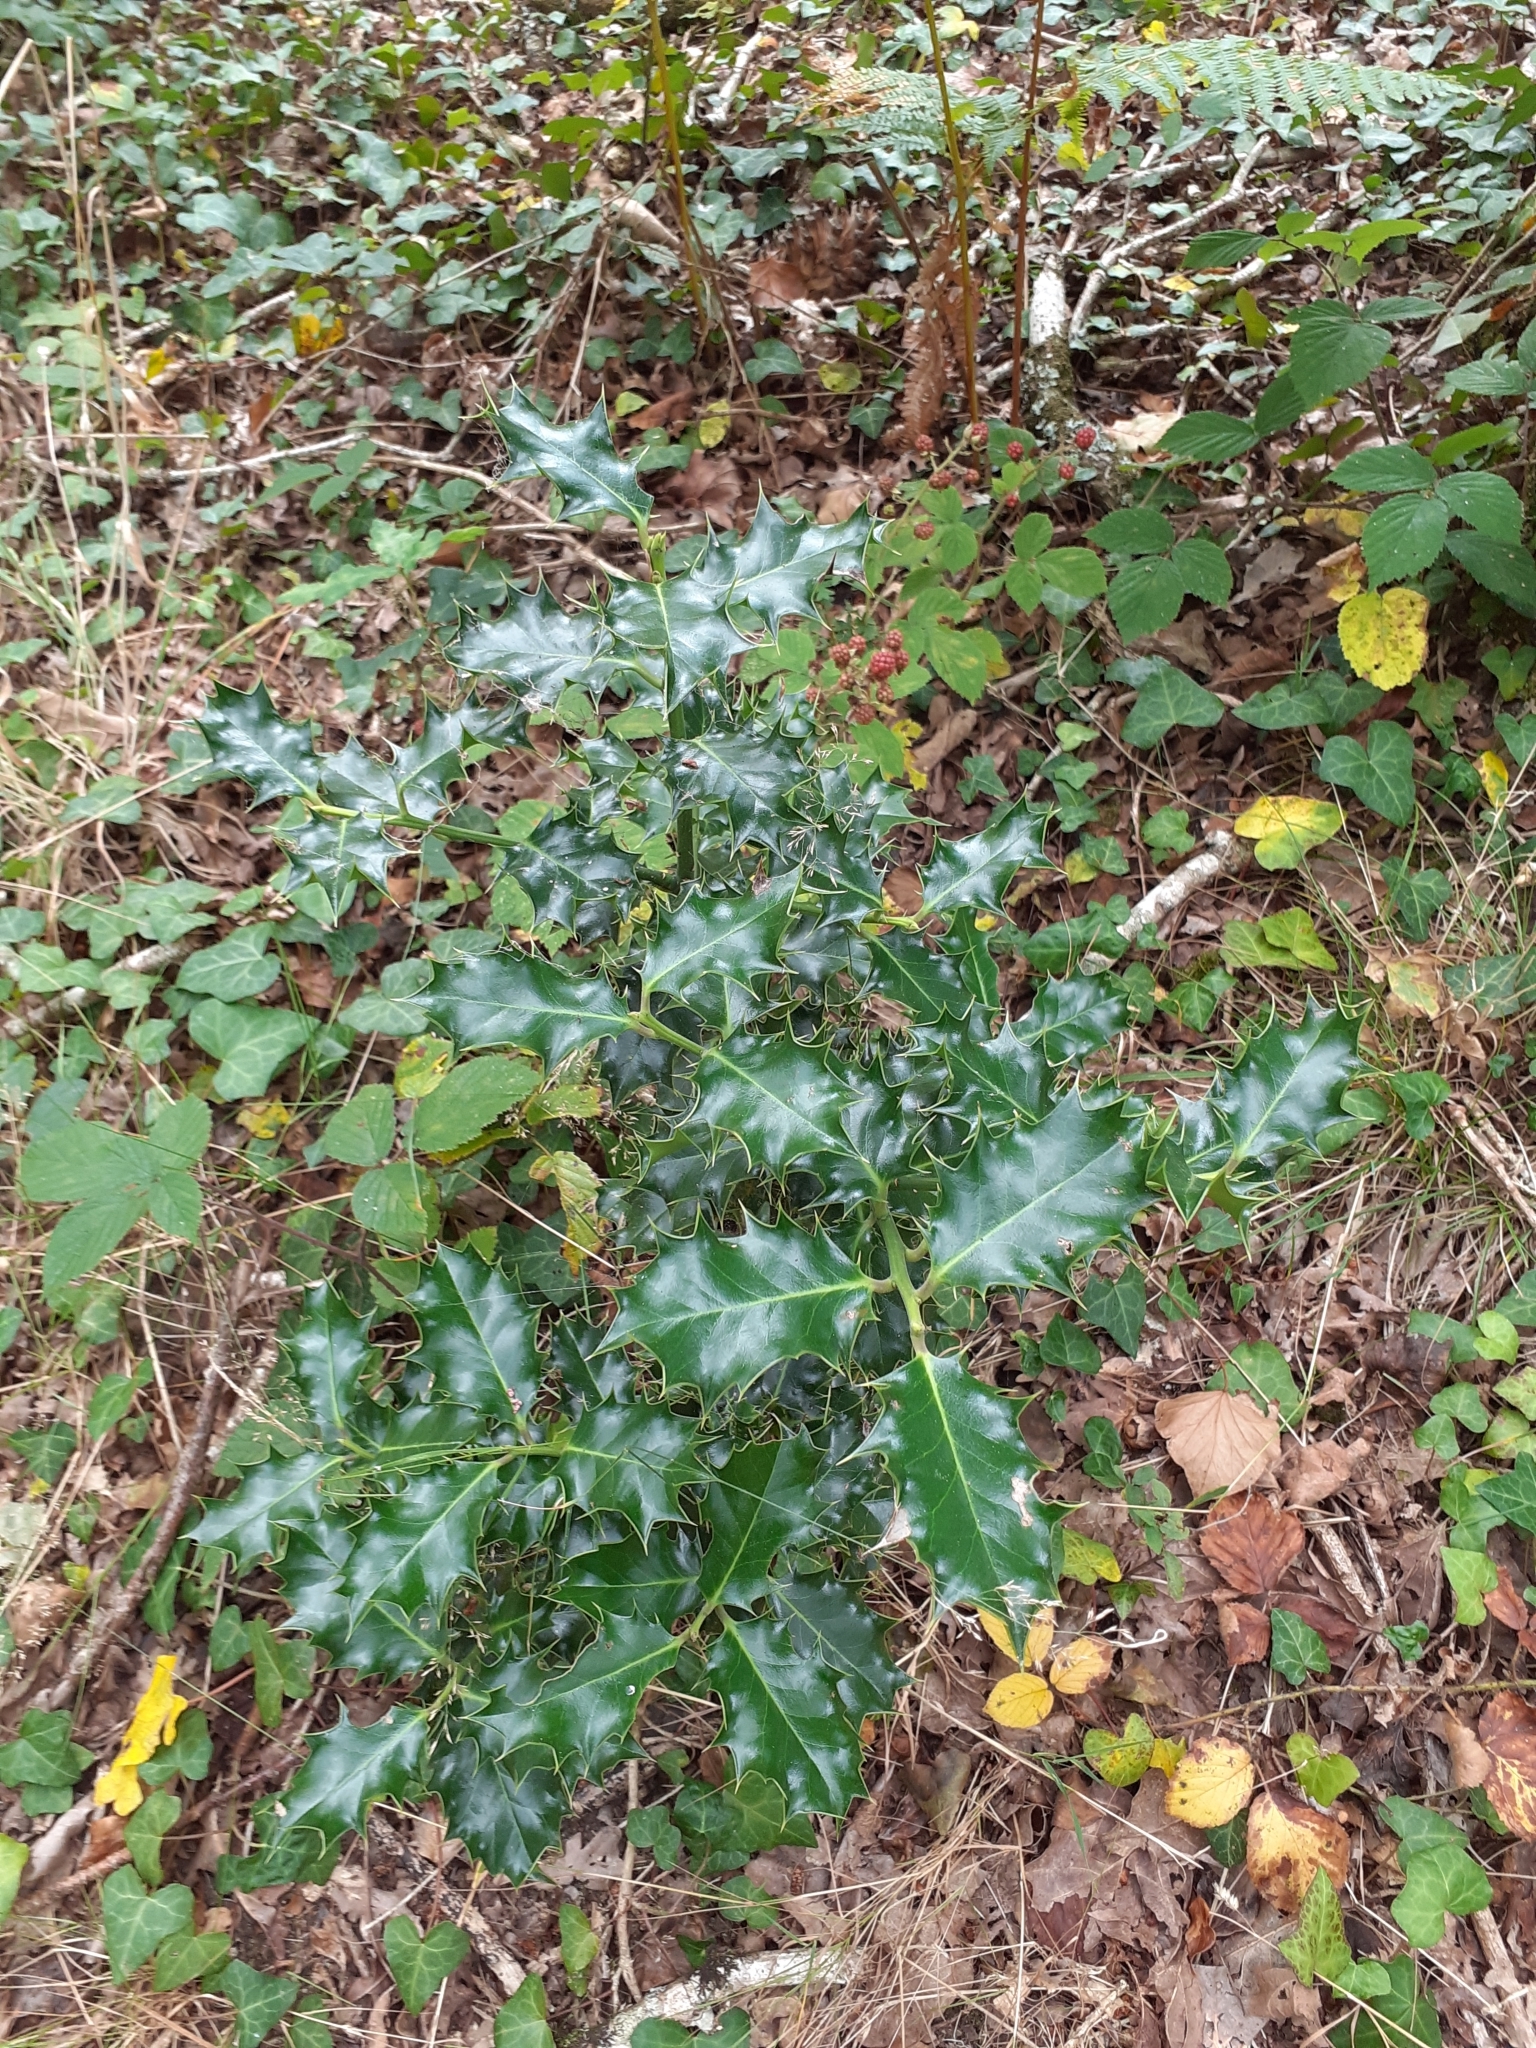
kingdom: Plantae
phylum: Tracheophyta
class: Magnoliopsida
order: Aquifoliales
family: Aquifoliaceae
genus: Ilex
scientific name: Ilex aquifolium
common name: English holly
